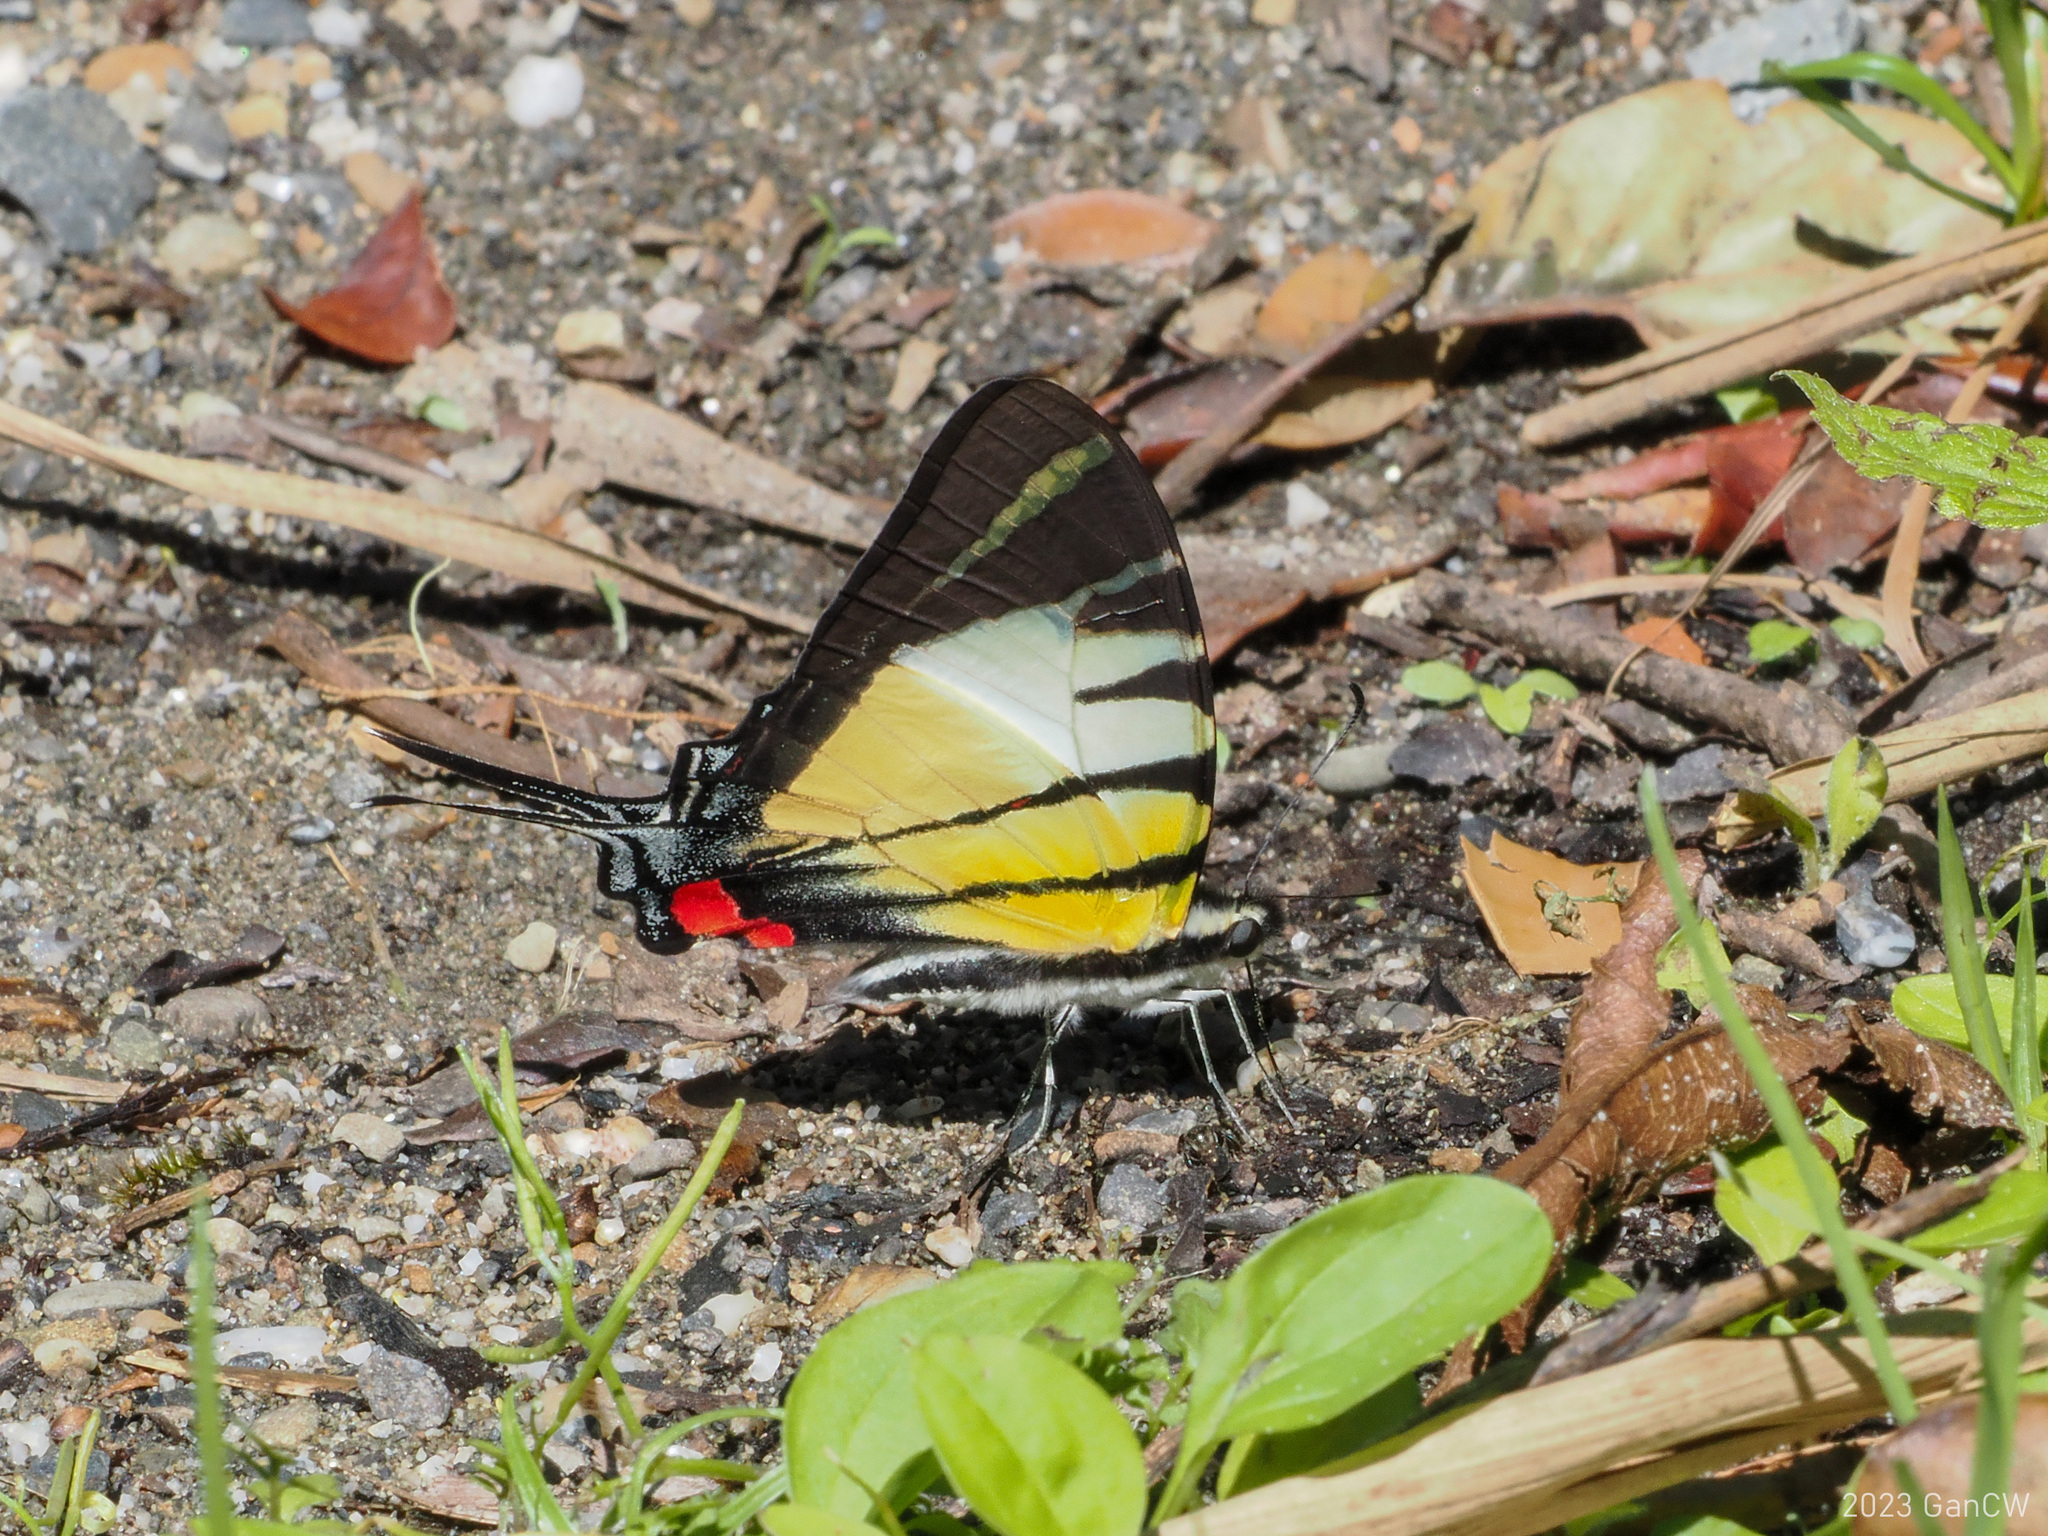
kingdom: Animalia
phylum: Arthropoda
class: Insecta
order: Lepidoptera
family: Papilionidae
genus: Graphium
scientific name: Graphium stratiotes
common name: Kinabalu swordtail
